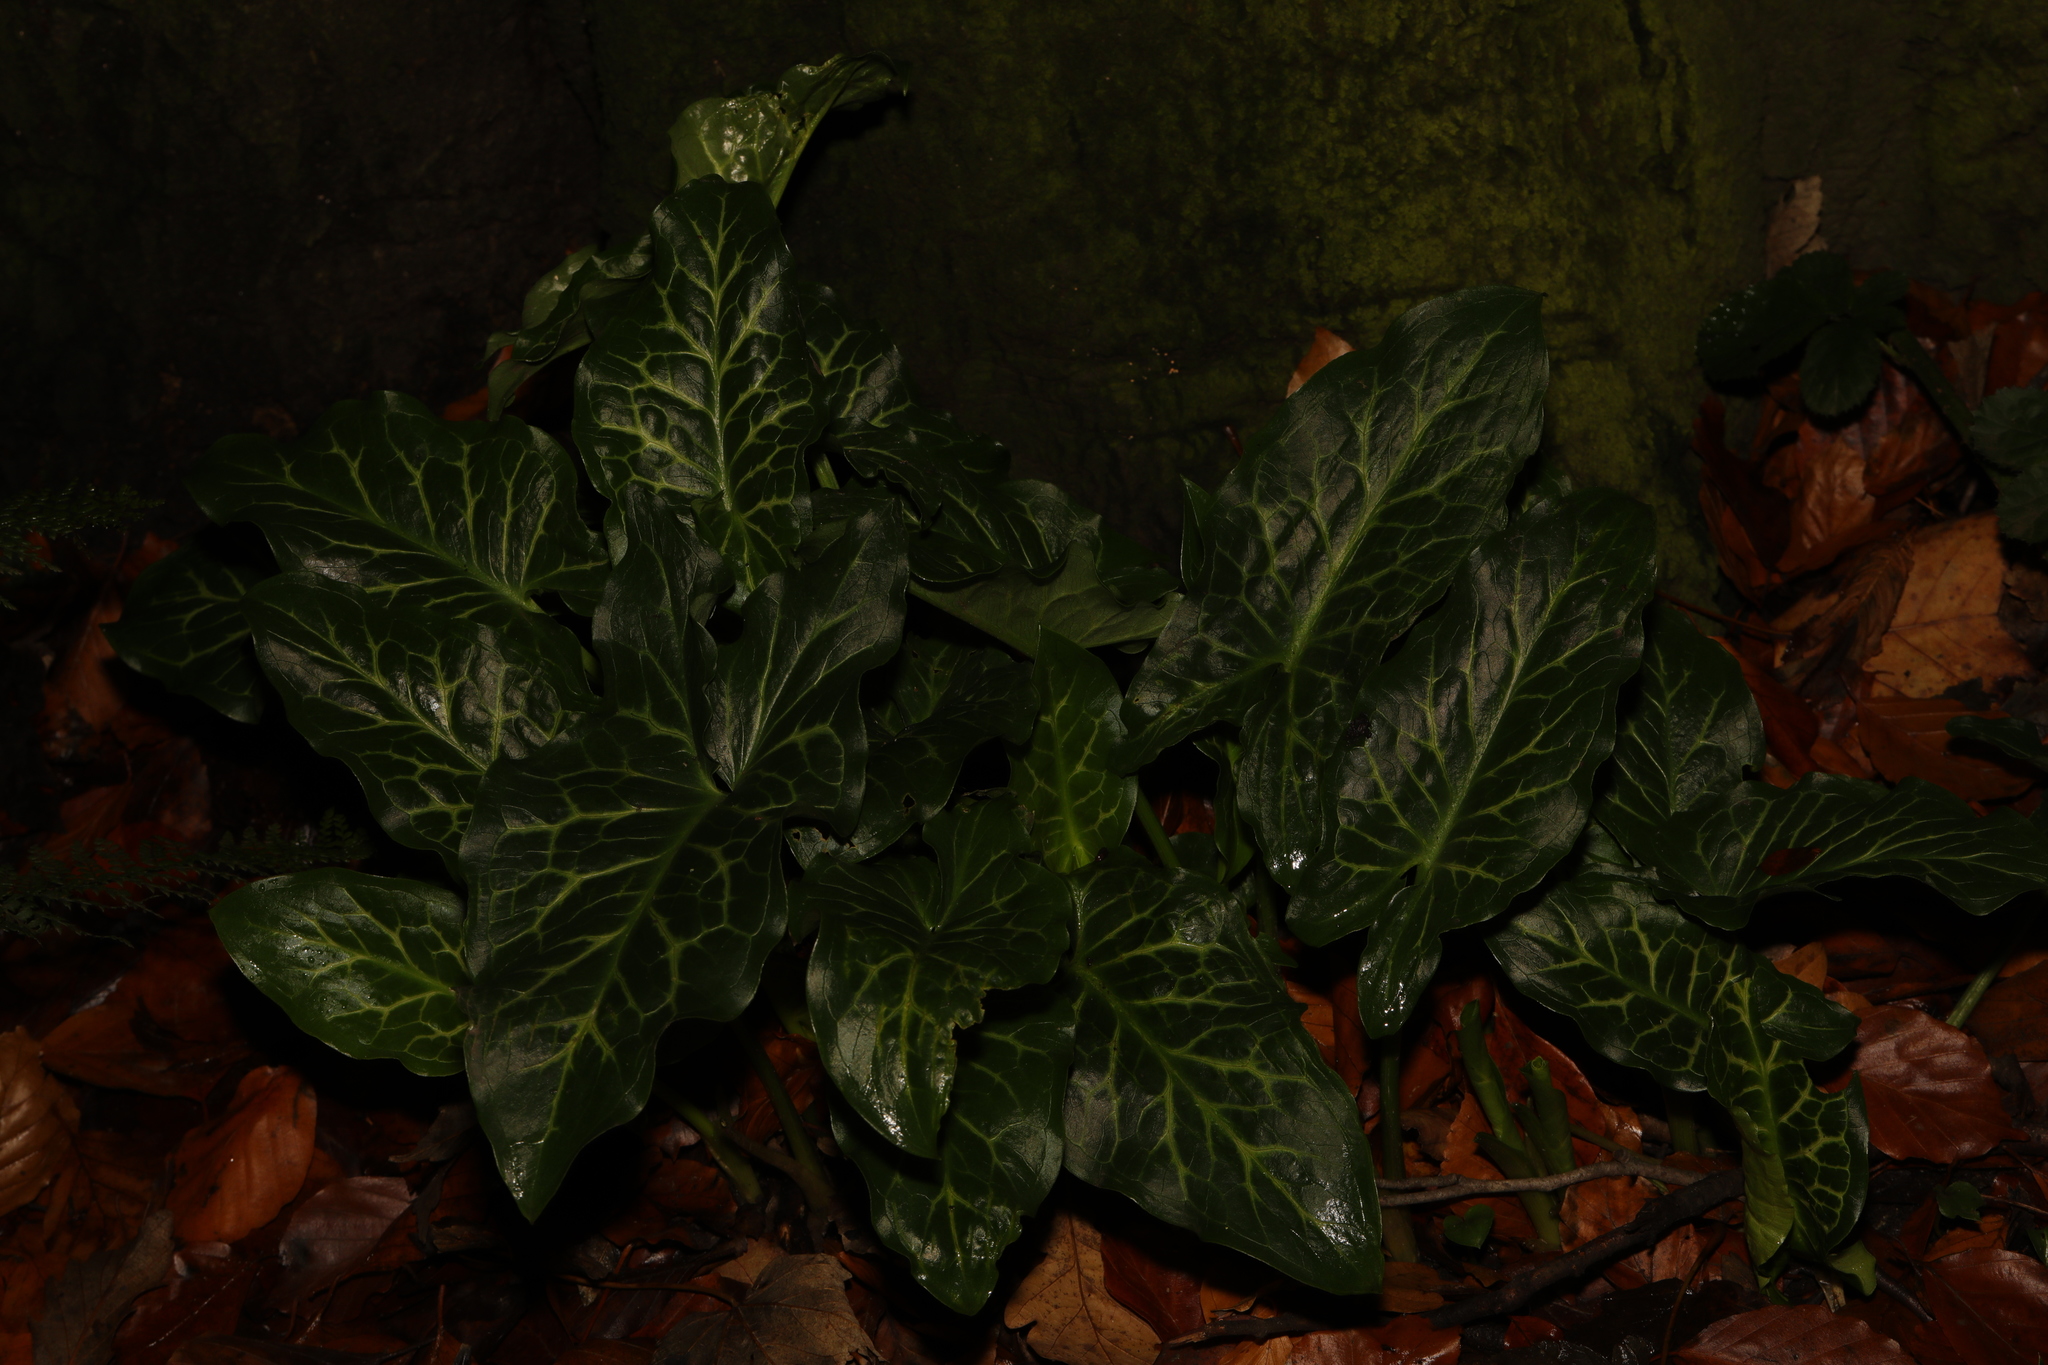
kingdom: Plantae
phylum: Tracheophyta
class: Liliopsida
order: Alismatales
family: Araceae
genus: Arum
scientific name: Arum italicum
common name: Italian lords-and-ladies
